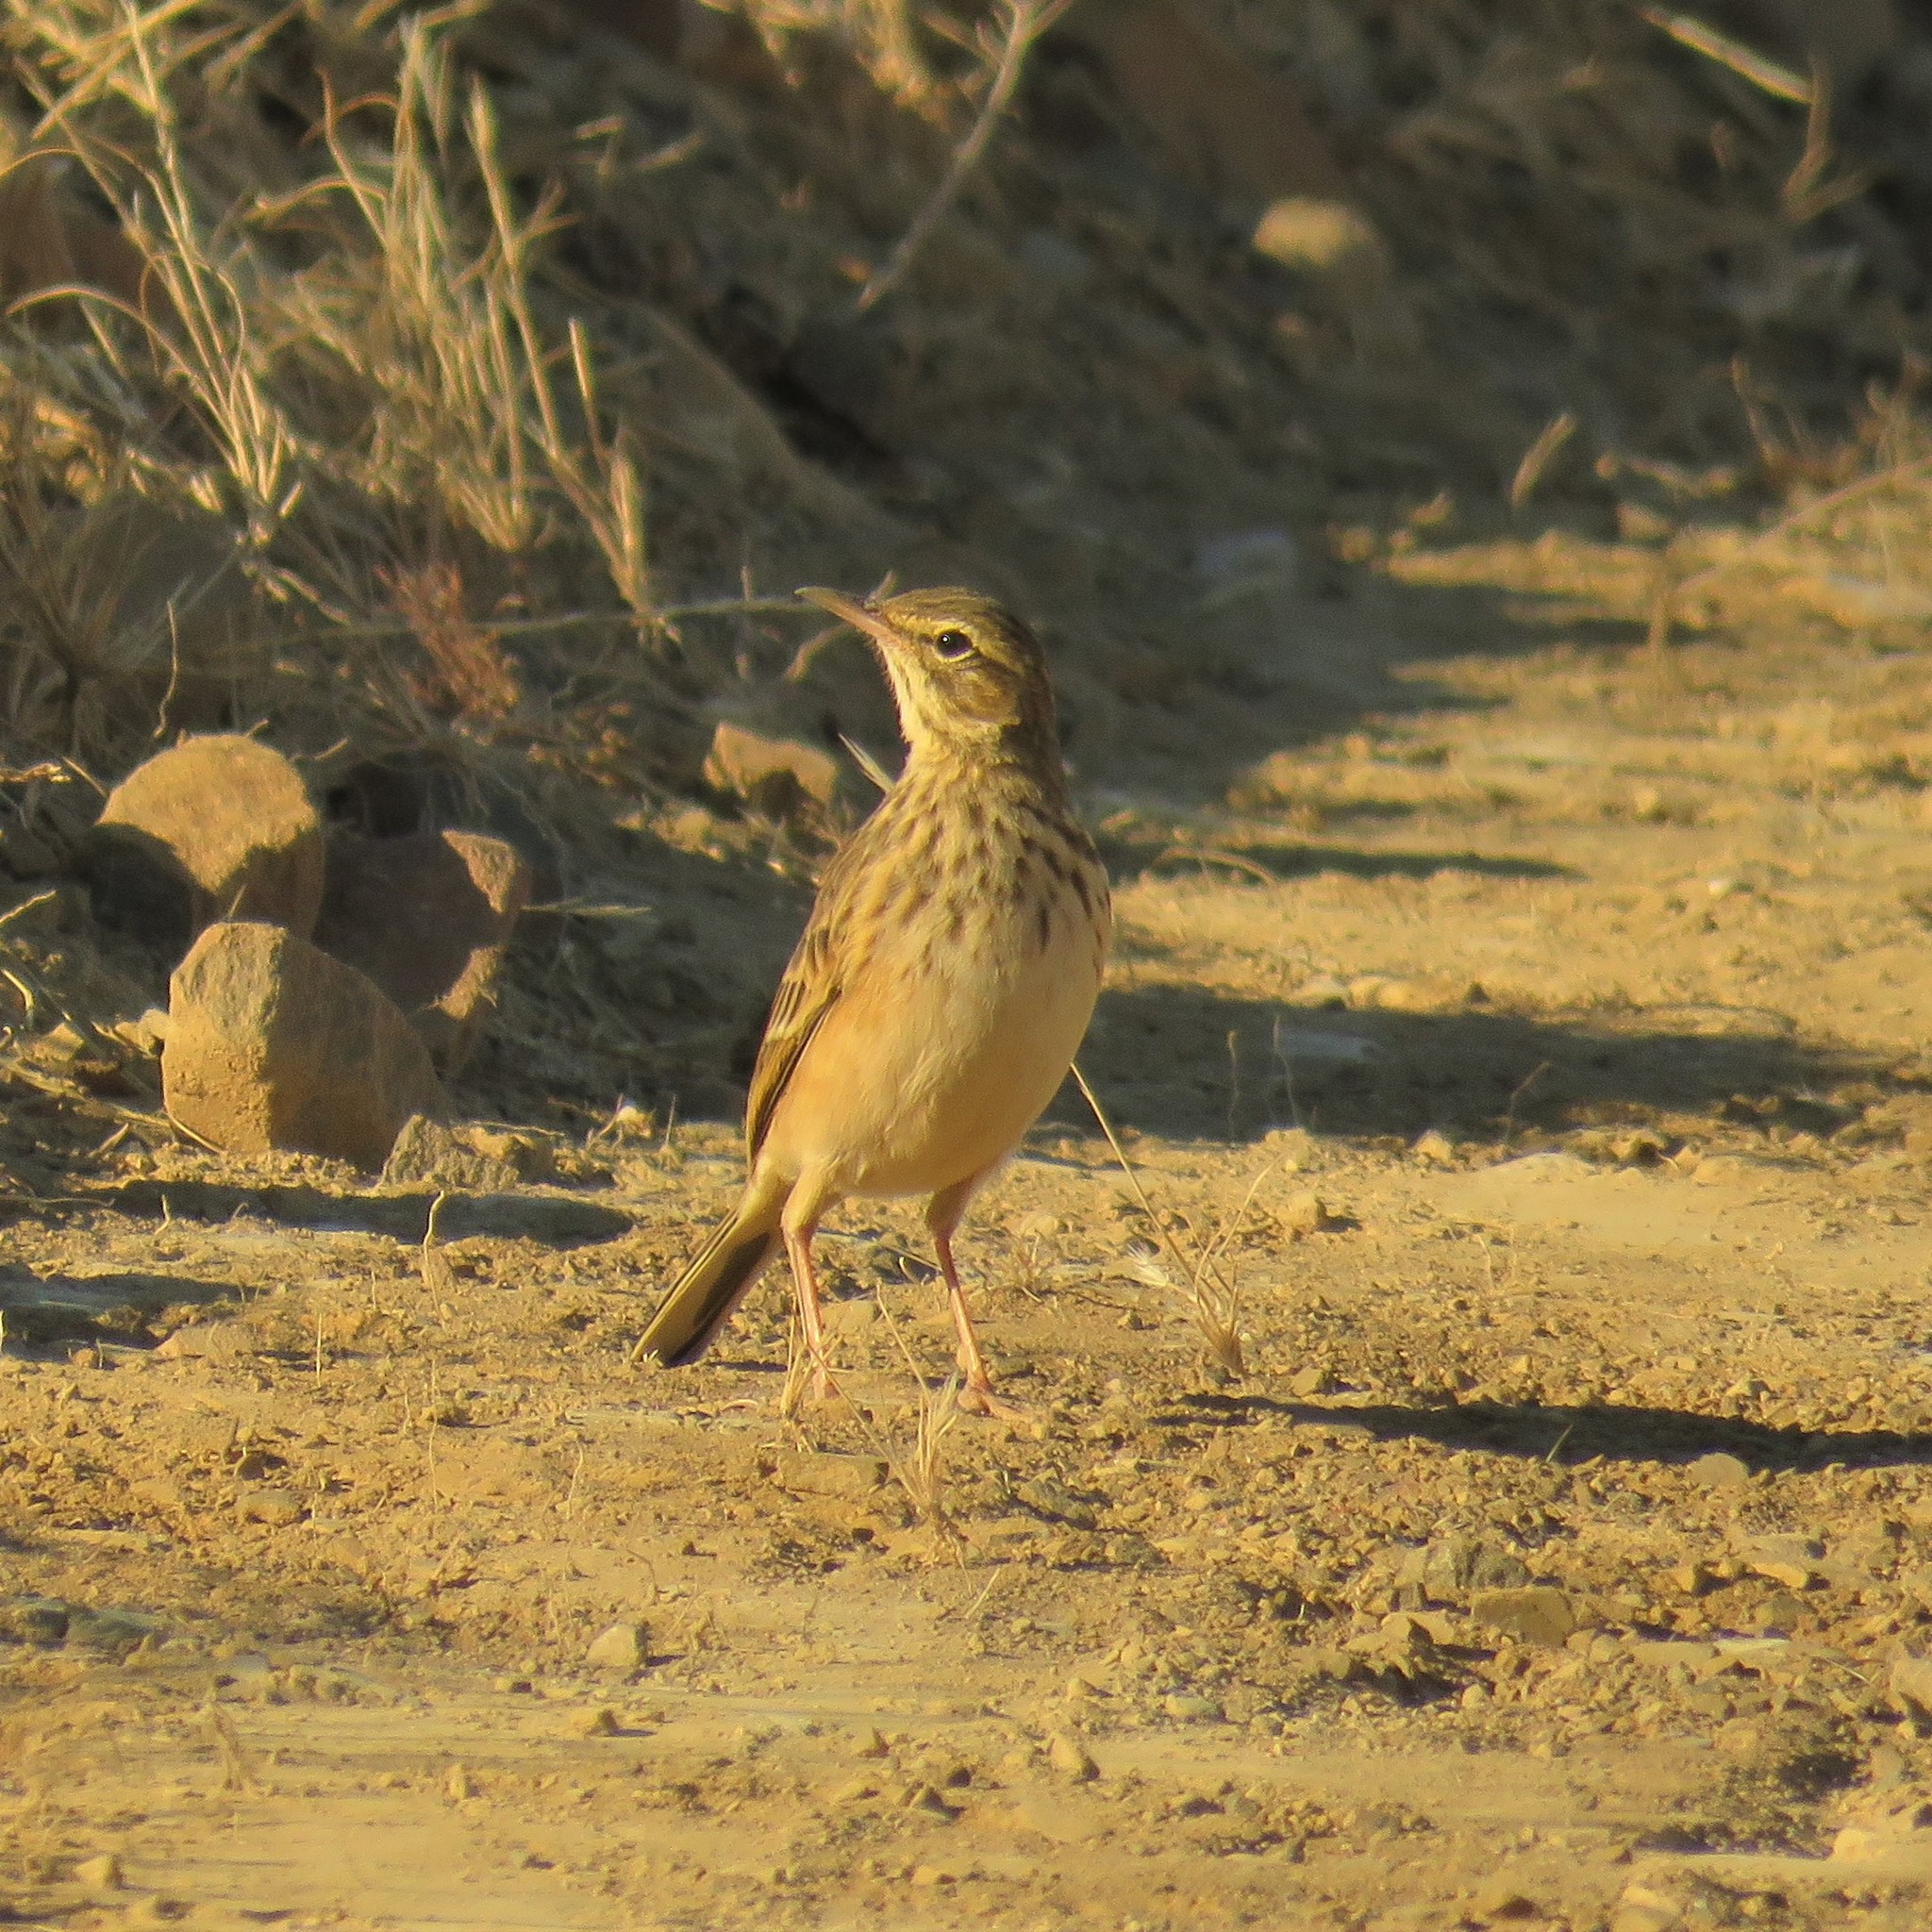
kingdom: Animalia
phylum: Chordata
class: Aves
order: Passeriformes
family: Motacillidae
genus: Anthus
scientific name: Anthus nicholsoni
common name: Nicholson's pipit
